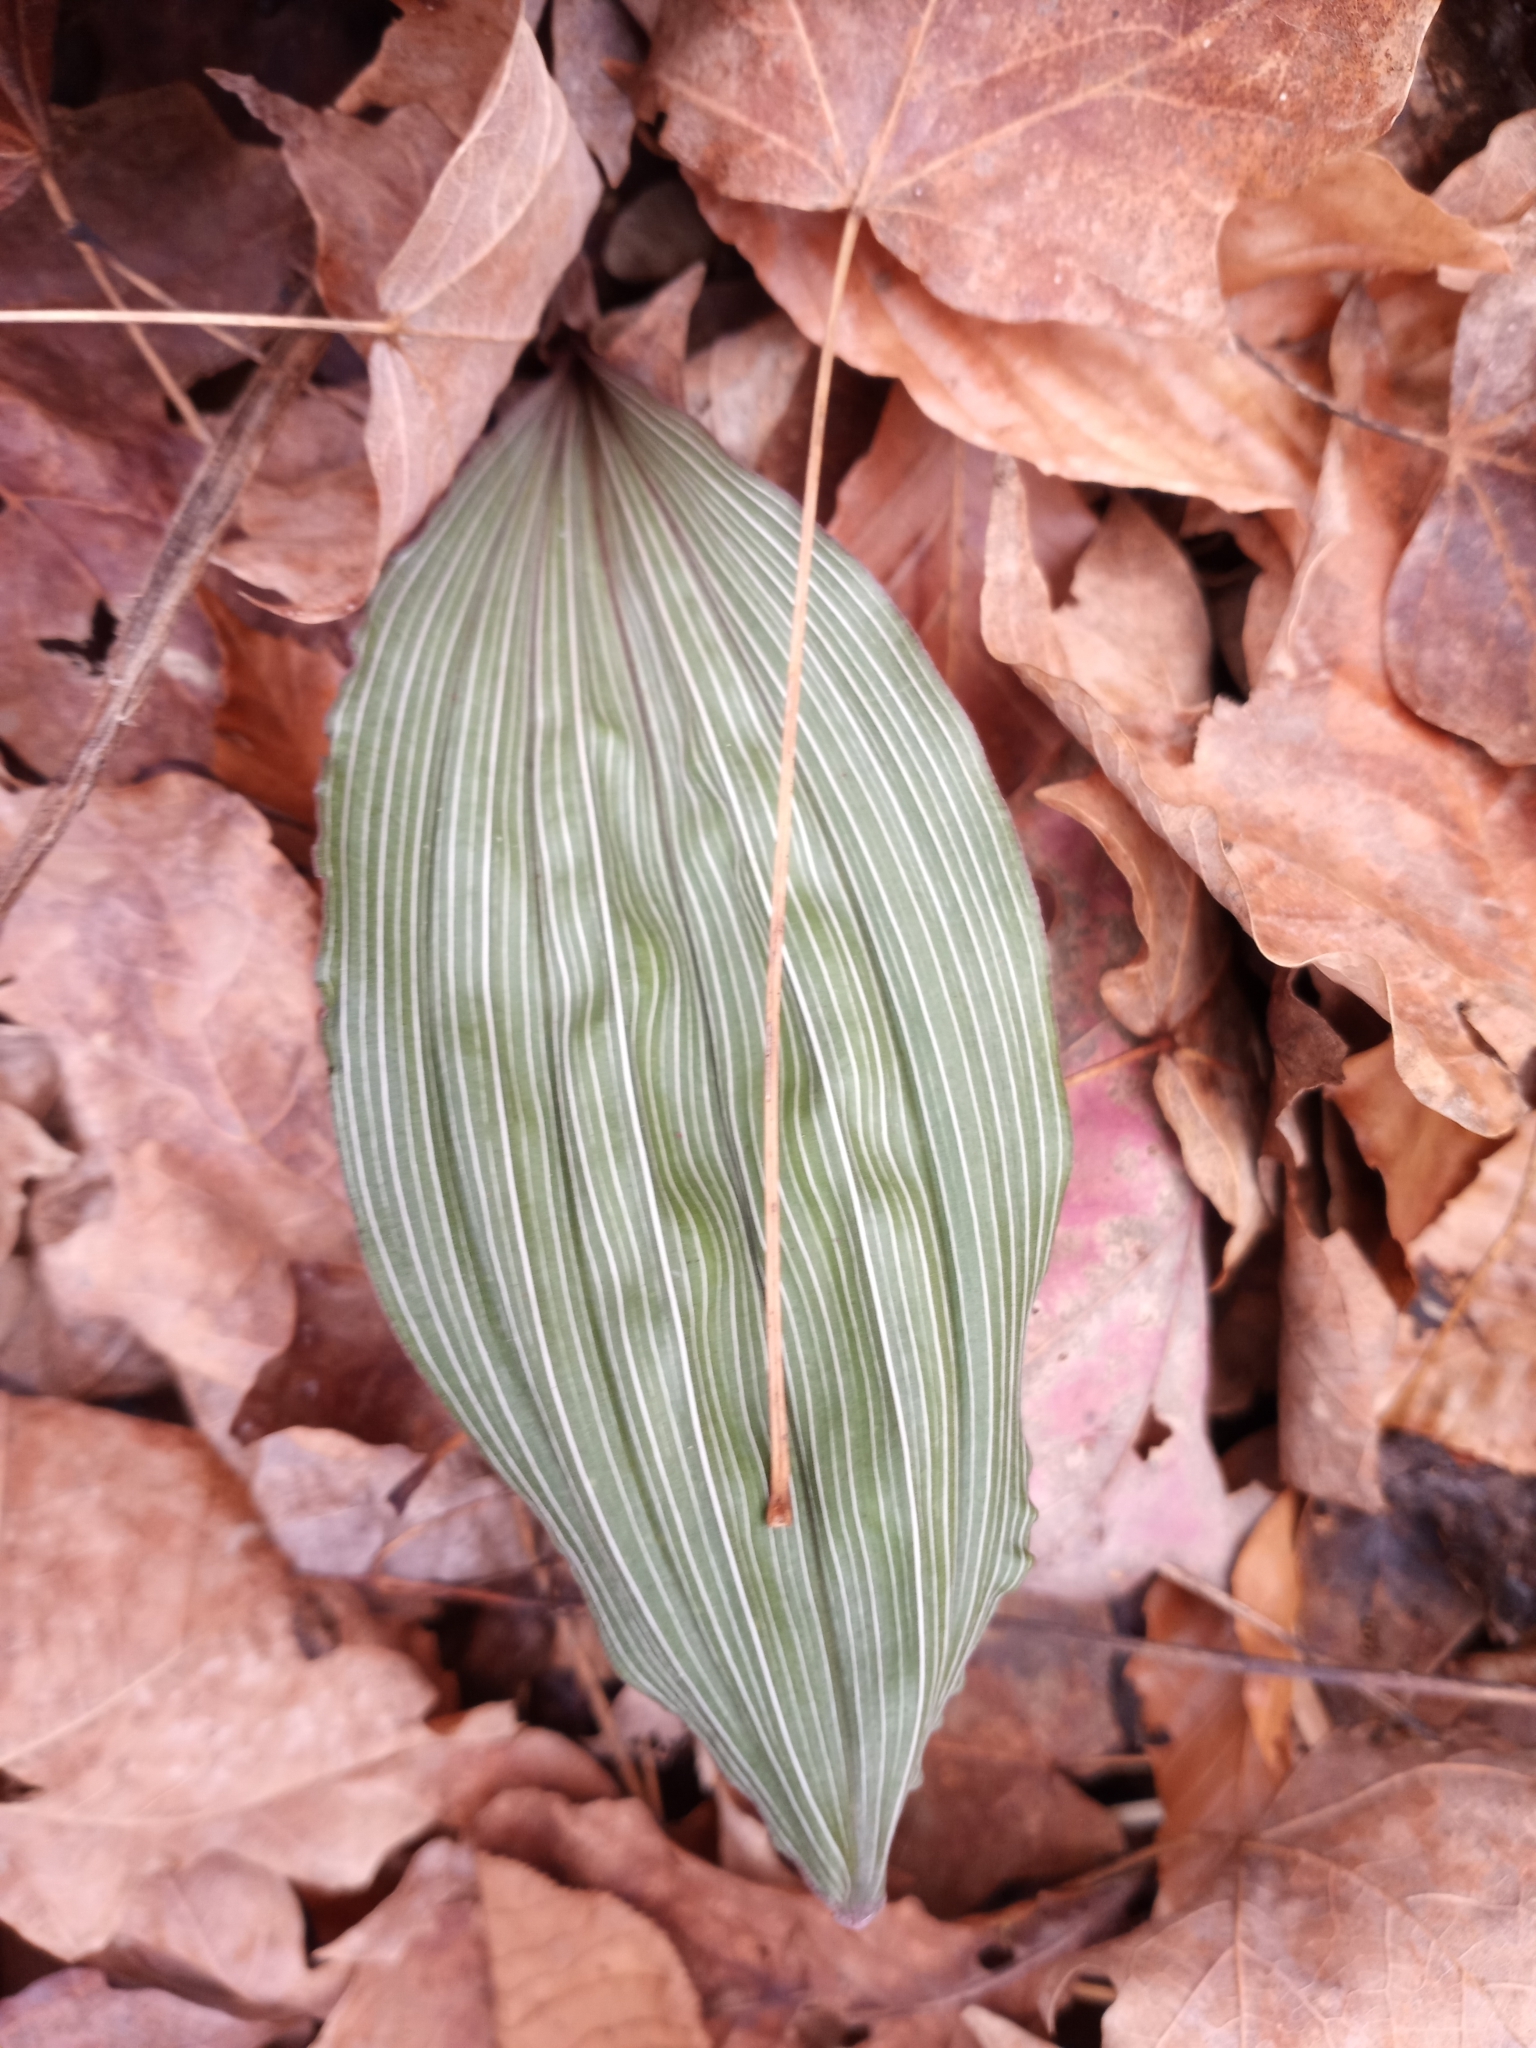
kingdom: Plantae
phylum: Tracheophyta
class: Liliopsida
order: Asparagales
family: Orchidaceae
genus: Aplectrum
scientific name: Aplectrum hyemale
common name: Adam-and-eve
